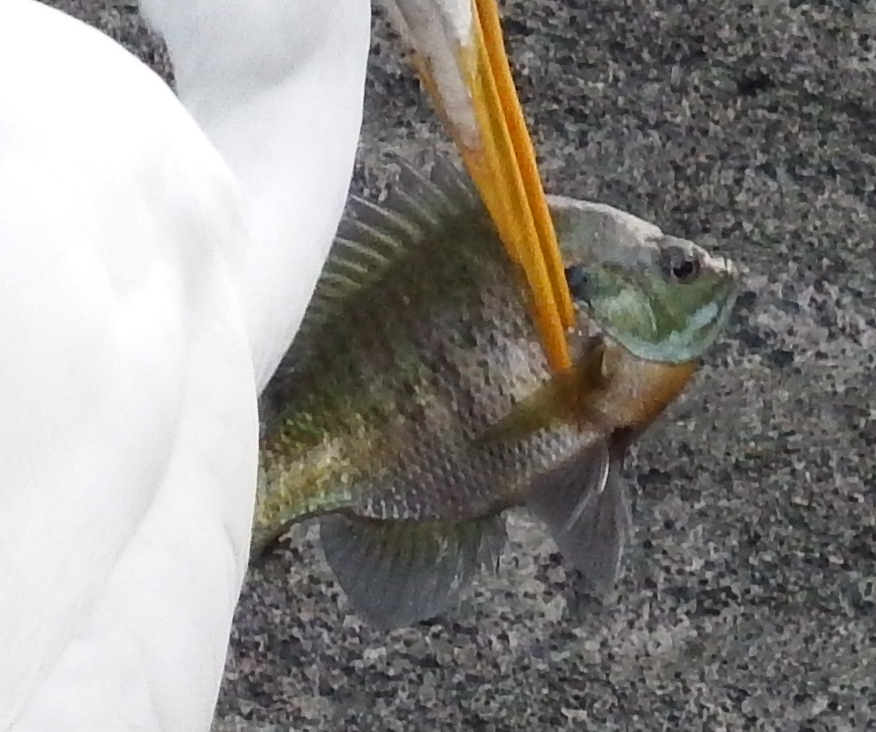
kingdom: Animalia
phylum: Chordata
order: Perciformes
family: Centrarchidae
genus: Lepomis
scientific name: Lepomis macrochirus
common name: Bluegill
